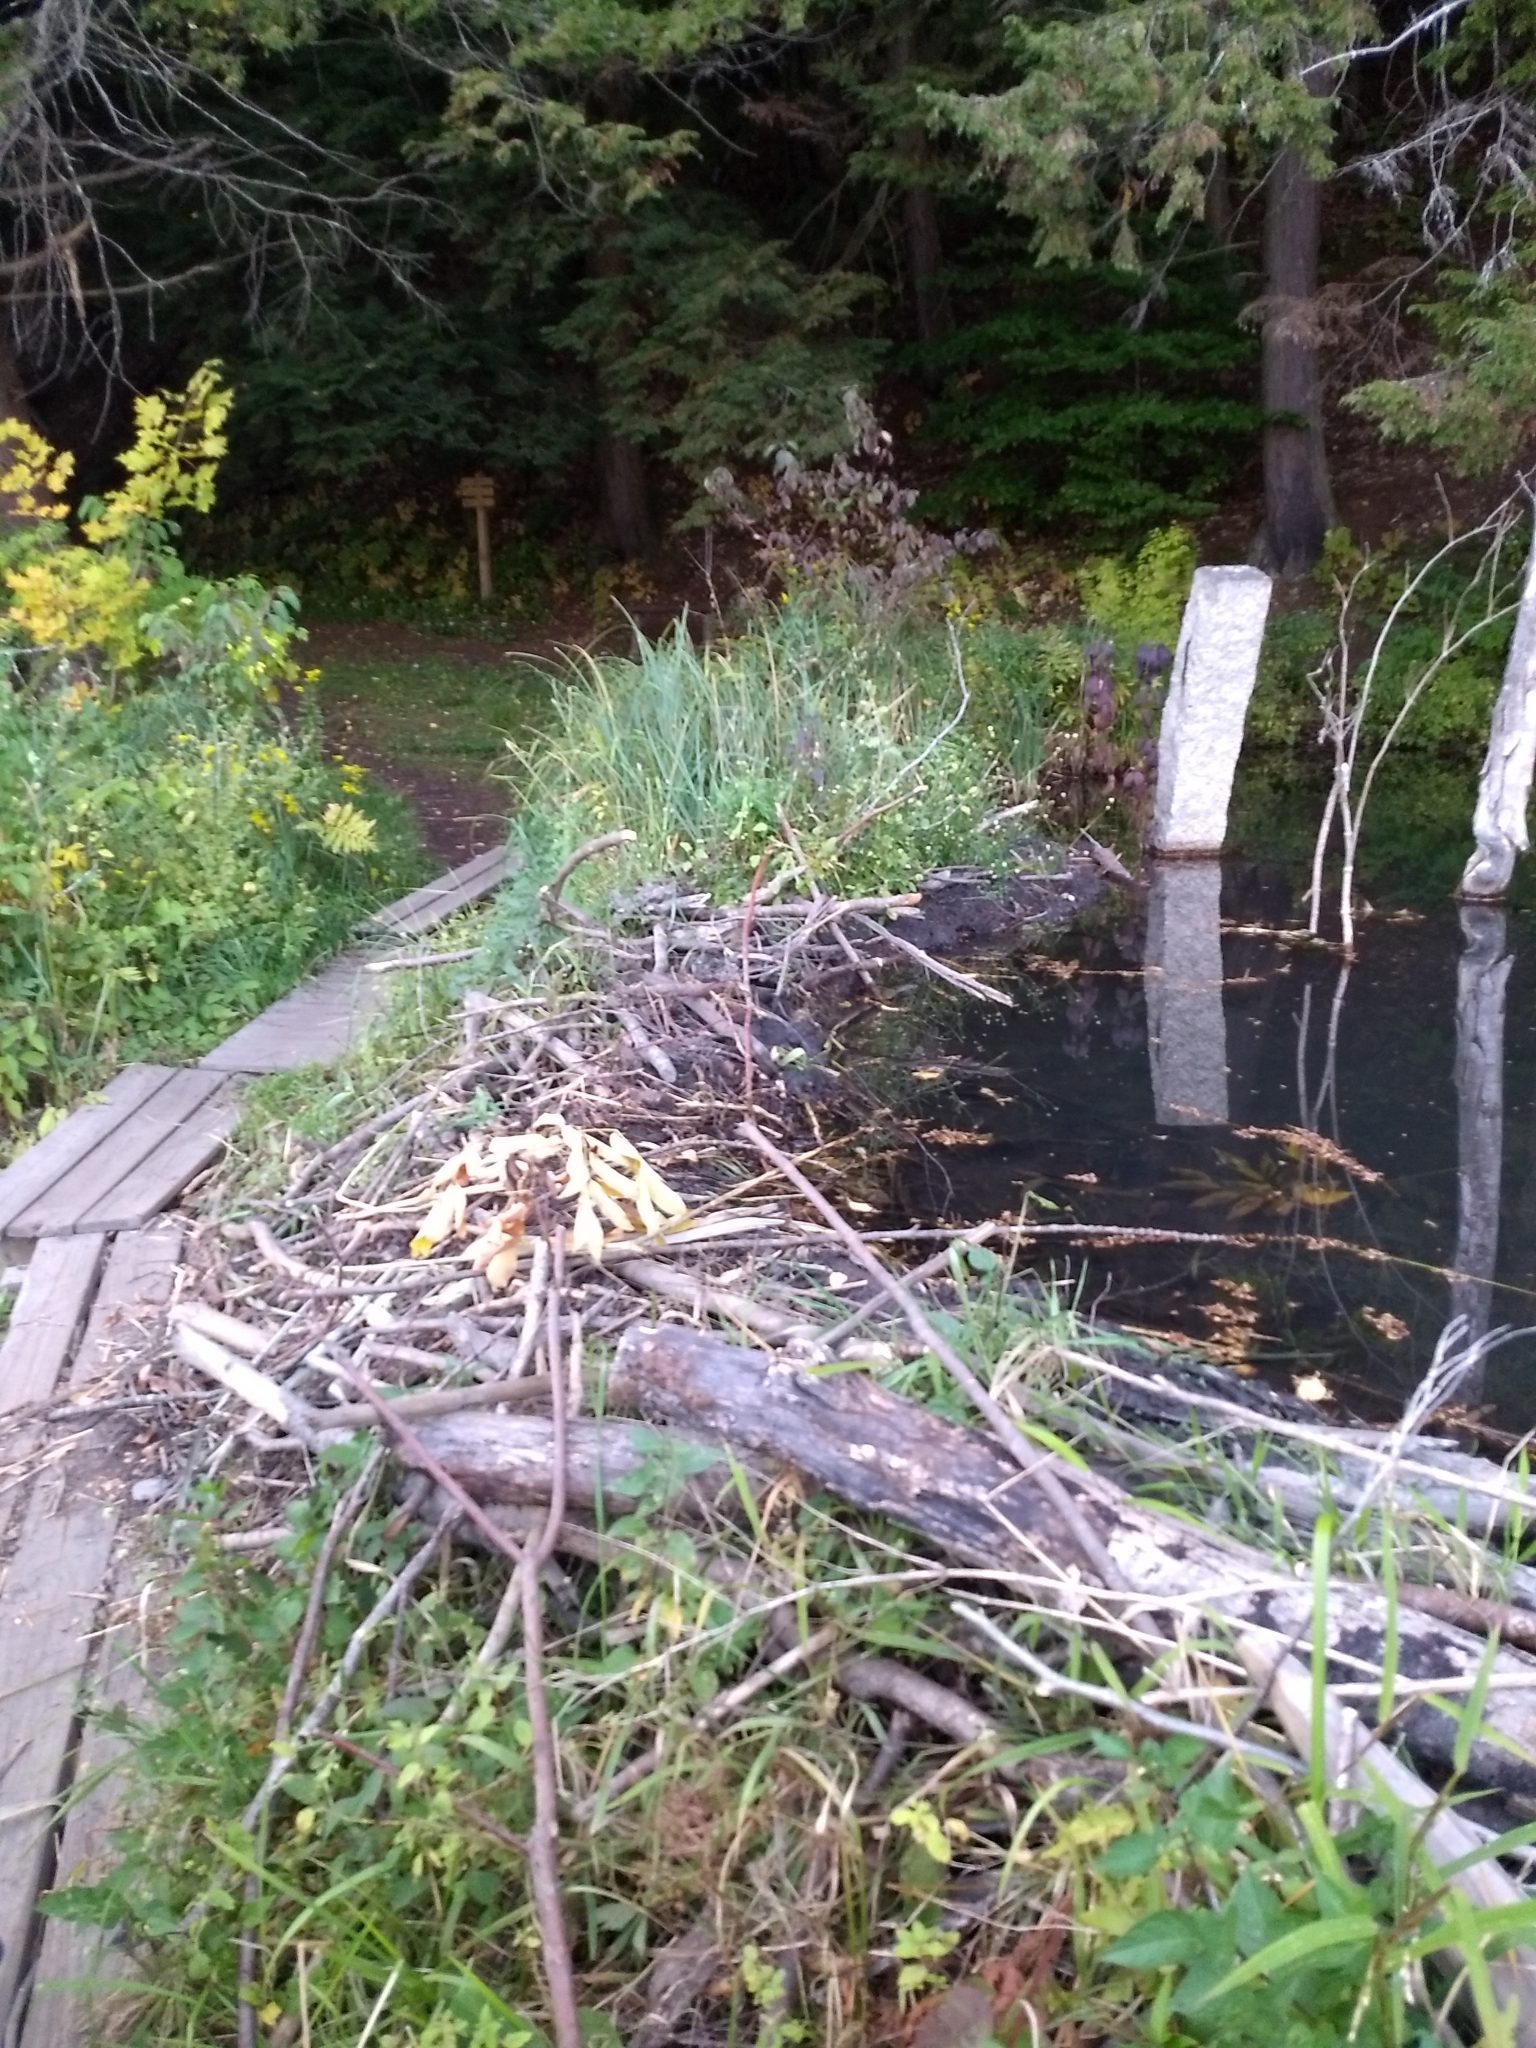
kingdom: Animalia
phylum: Chordata
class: Mammalia
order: Rodentia
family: Castoridae
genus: Castor
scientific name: Castor canadensis
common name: American beaver
